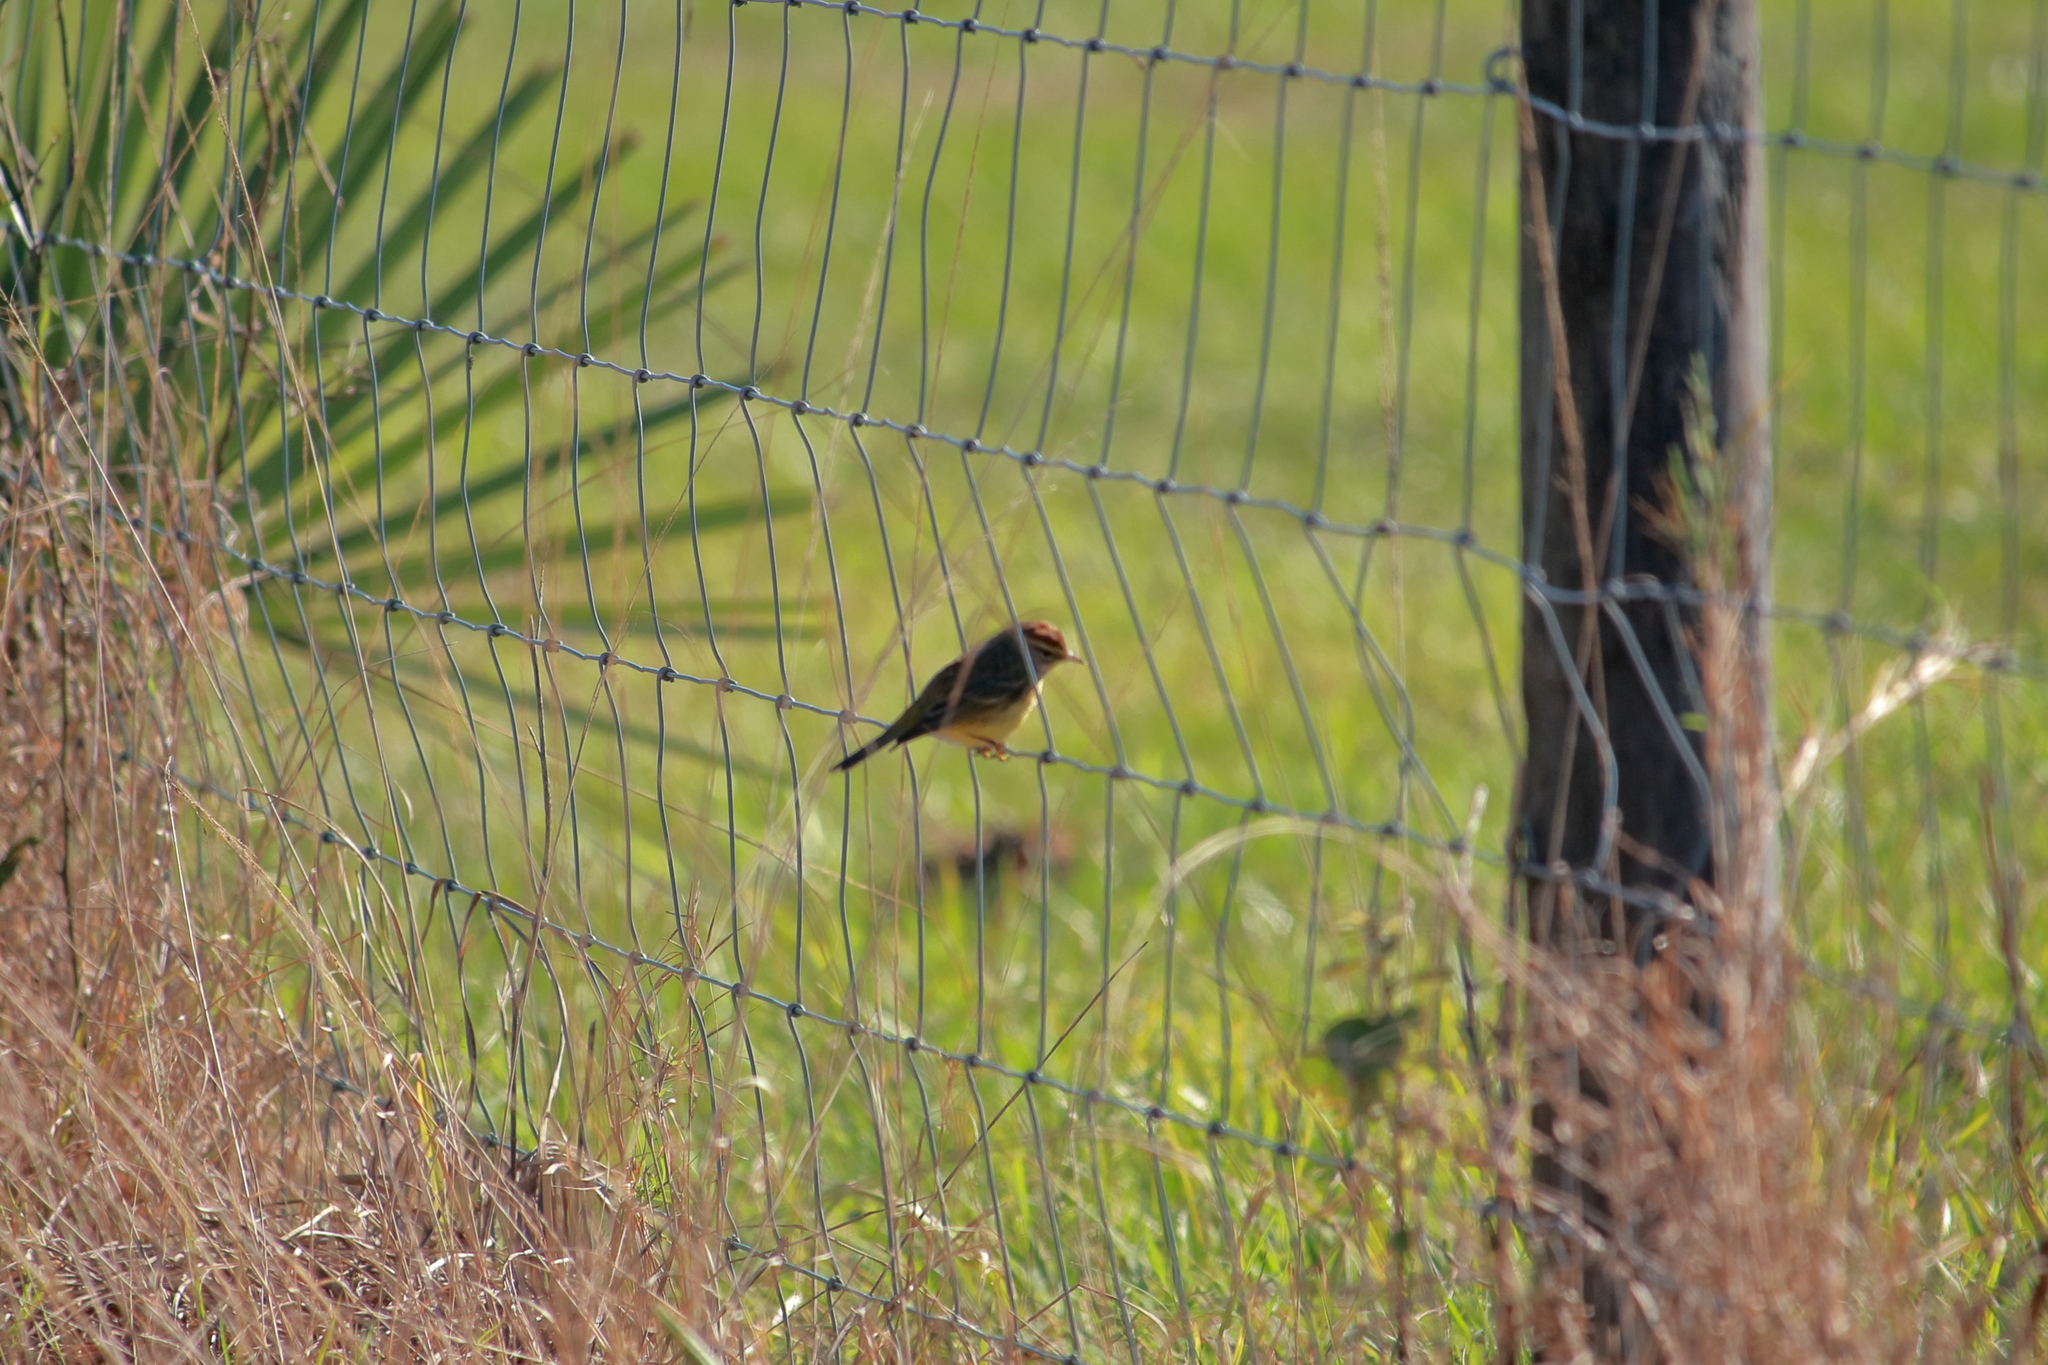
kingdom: Animalia
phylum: Chordata
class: Aves
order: Passeriformes
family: Parulidae
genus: Setophaga
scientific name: Setophaga palmarum
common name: Palm warbler
